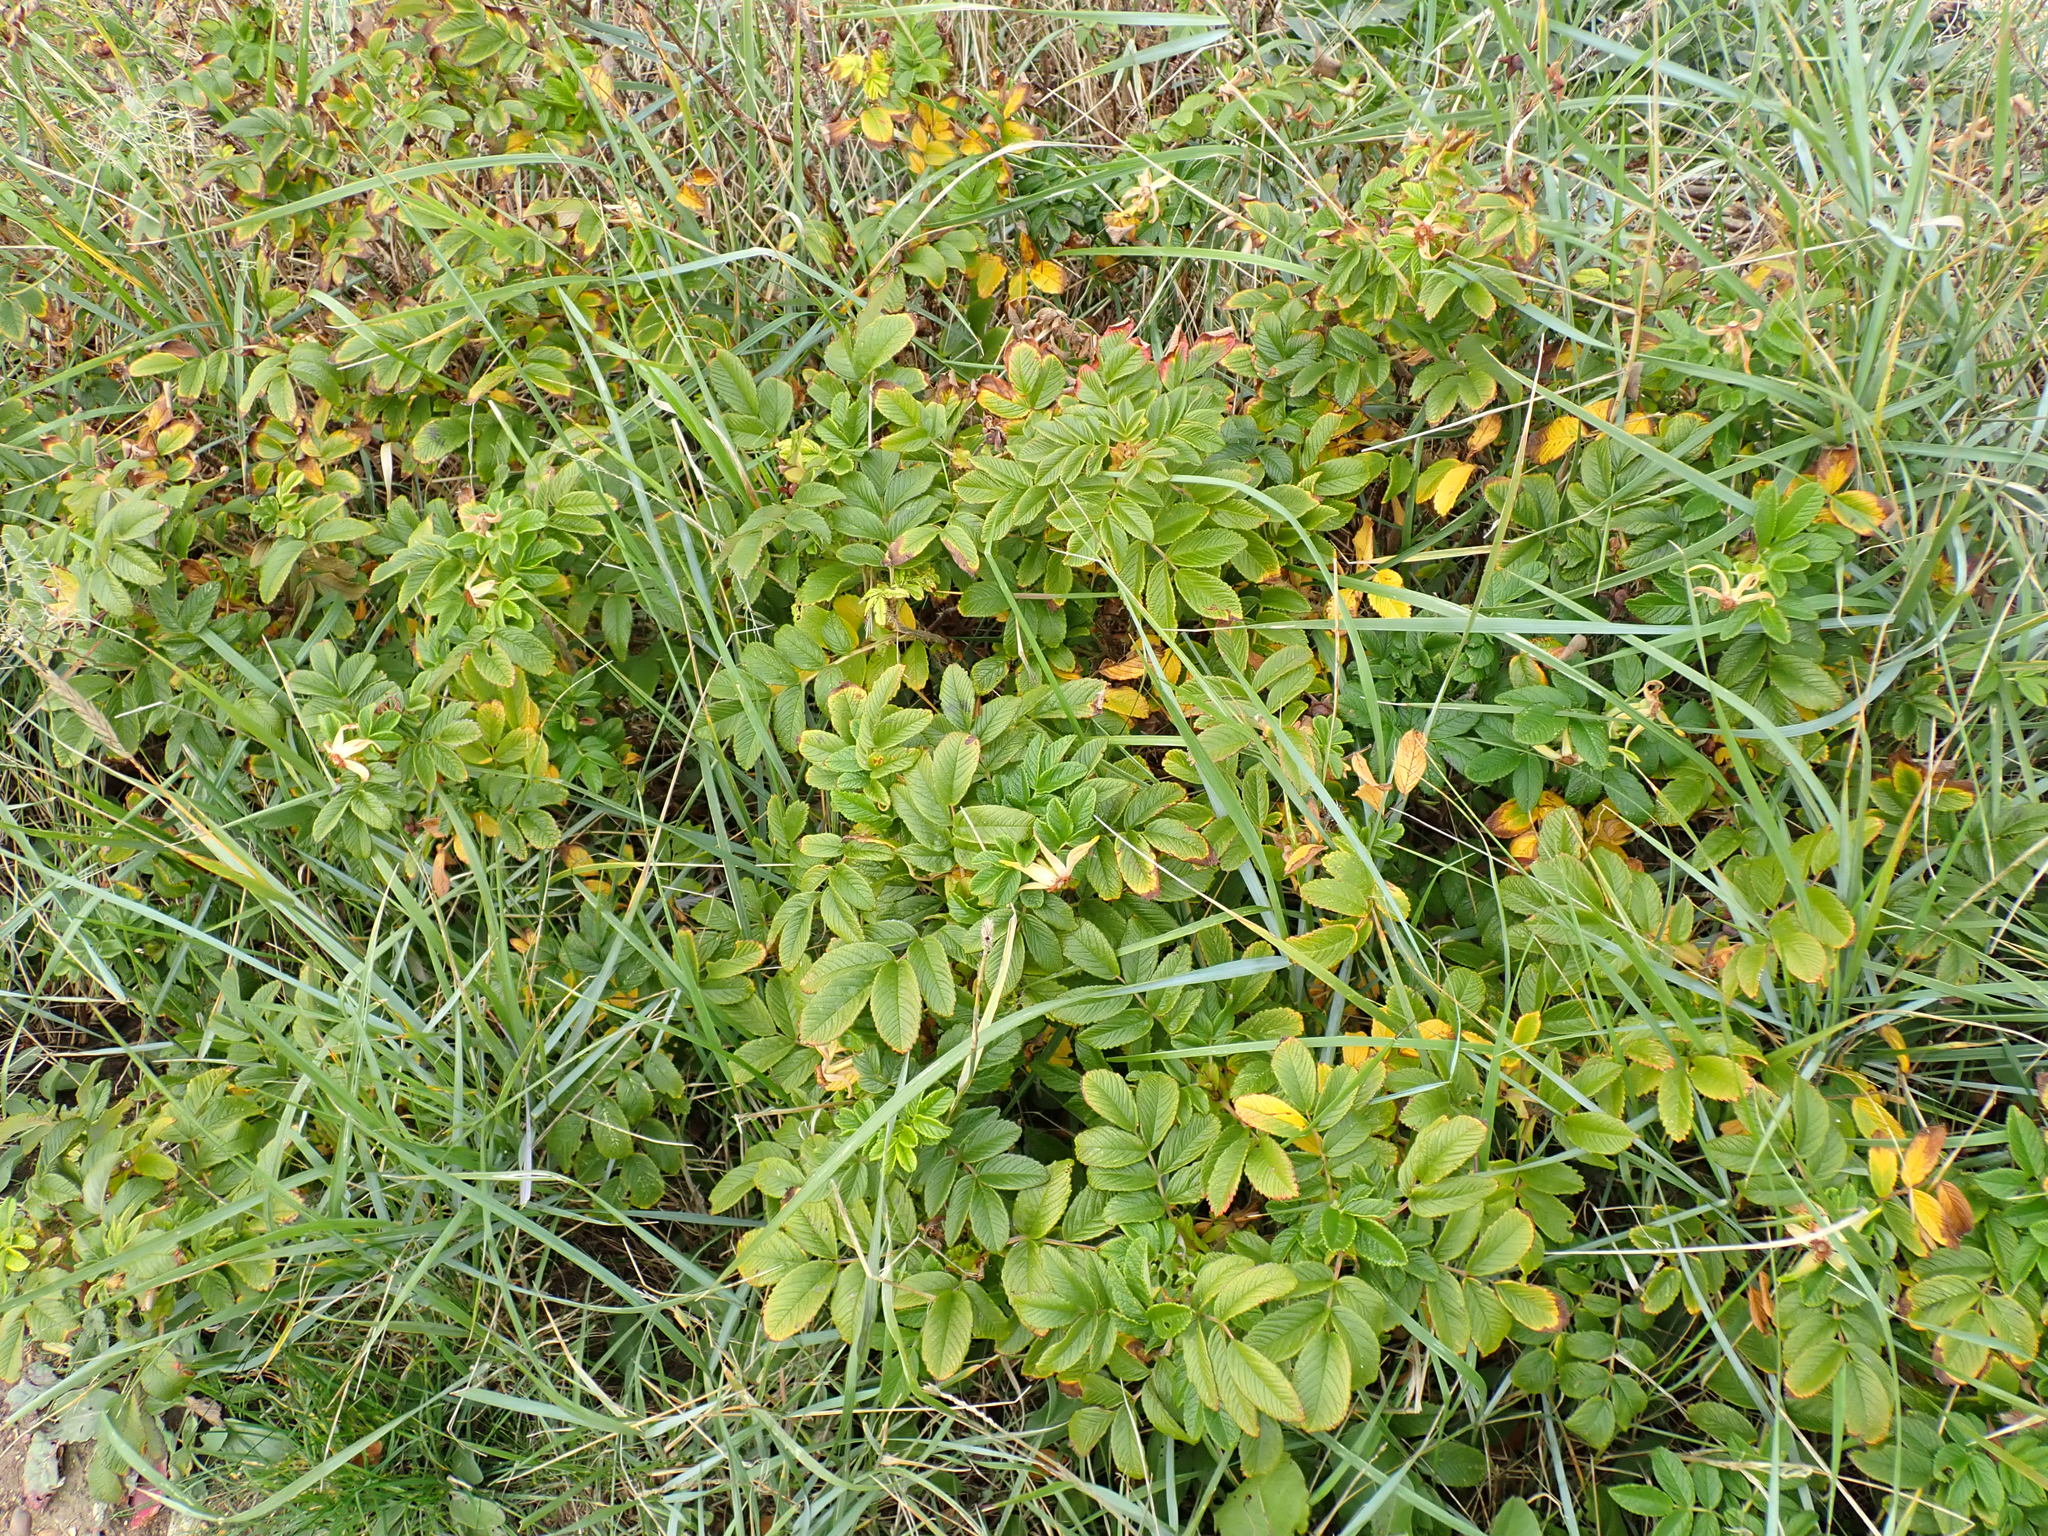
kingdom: Plantae
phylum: Tracheophyta
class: Magnoliopsida
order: Rosales
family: Rosaceae
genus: Rosa
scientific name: Rosa rugosa
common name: Japanese rose
